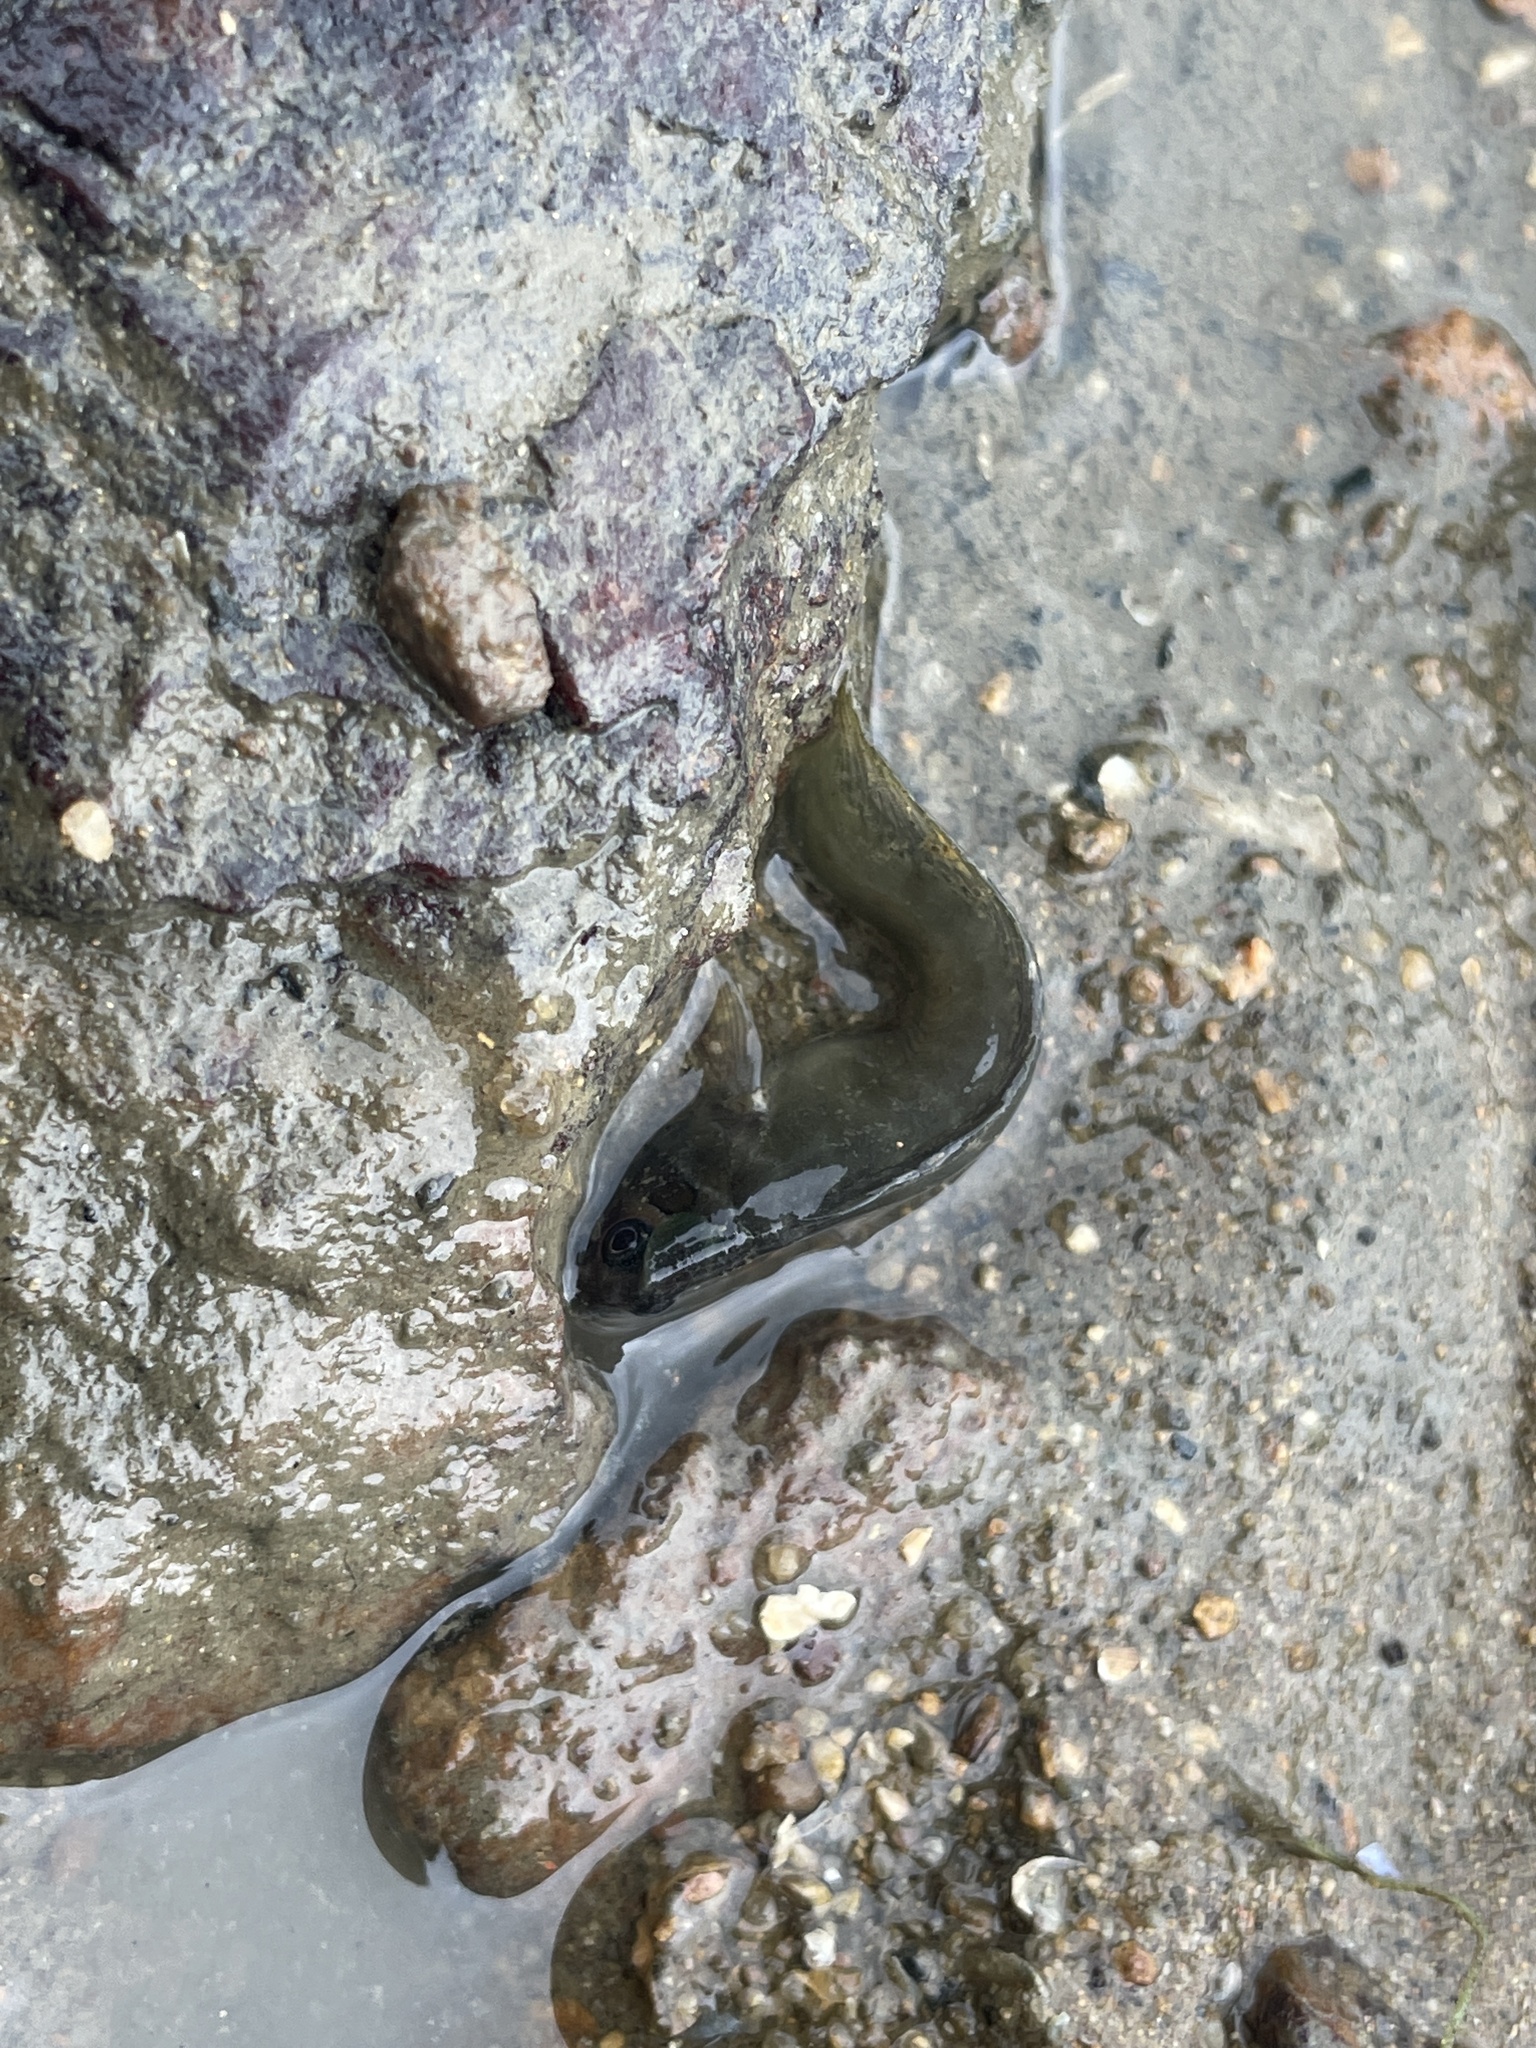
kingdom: Animalia
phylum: Chordata
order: Perciformes
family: Blenniidae
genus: Omobranchus
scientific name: Omobranchus fasciolatoceps
